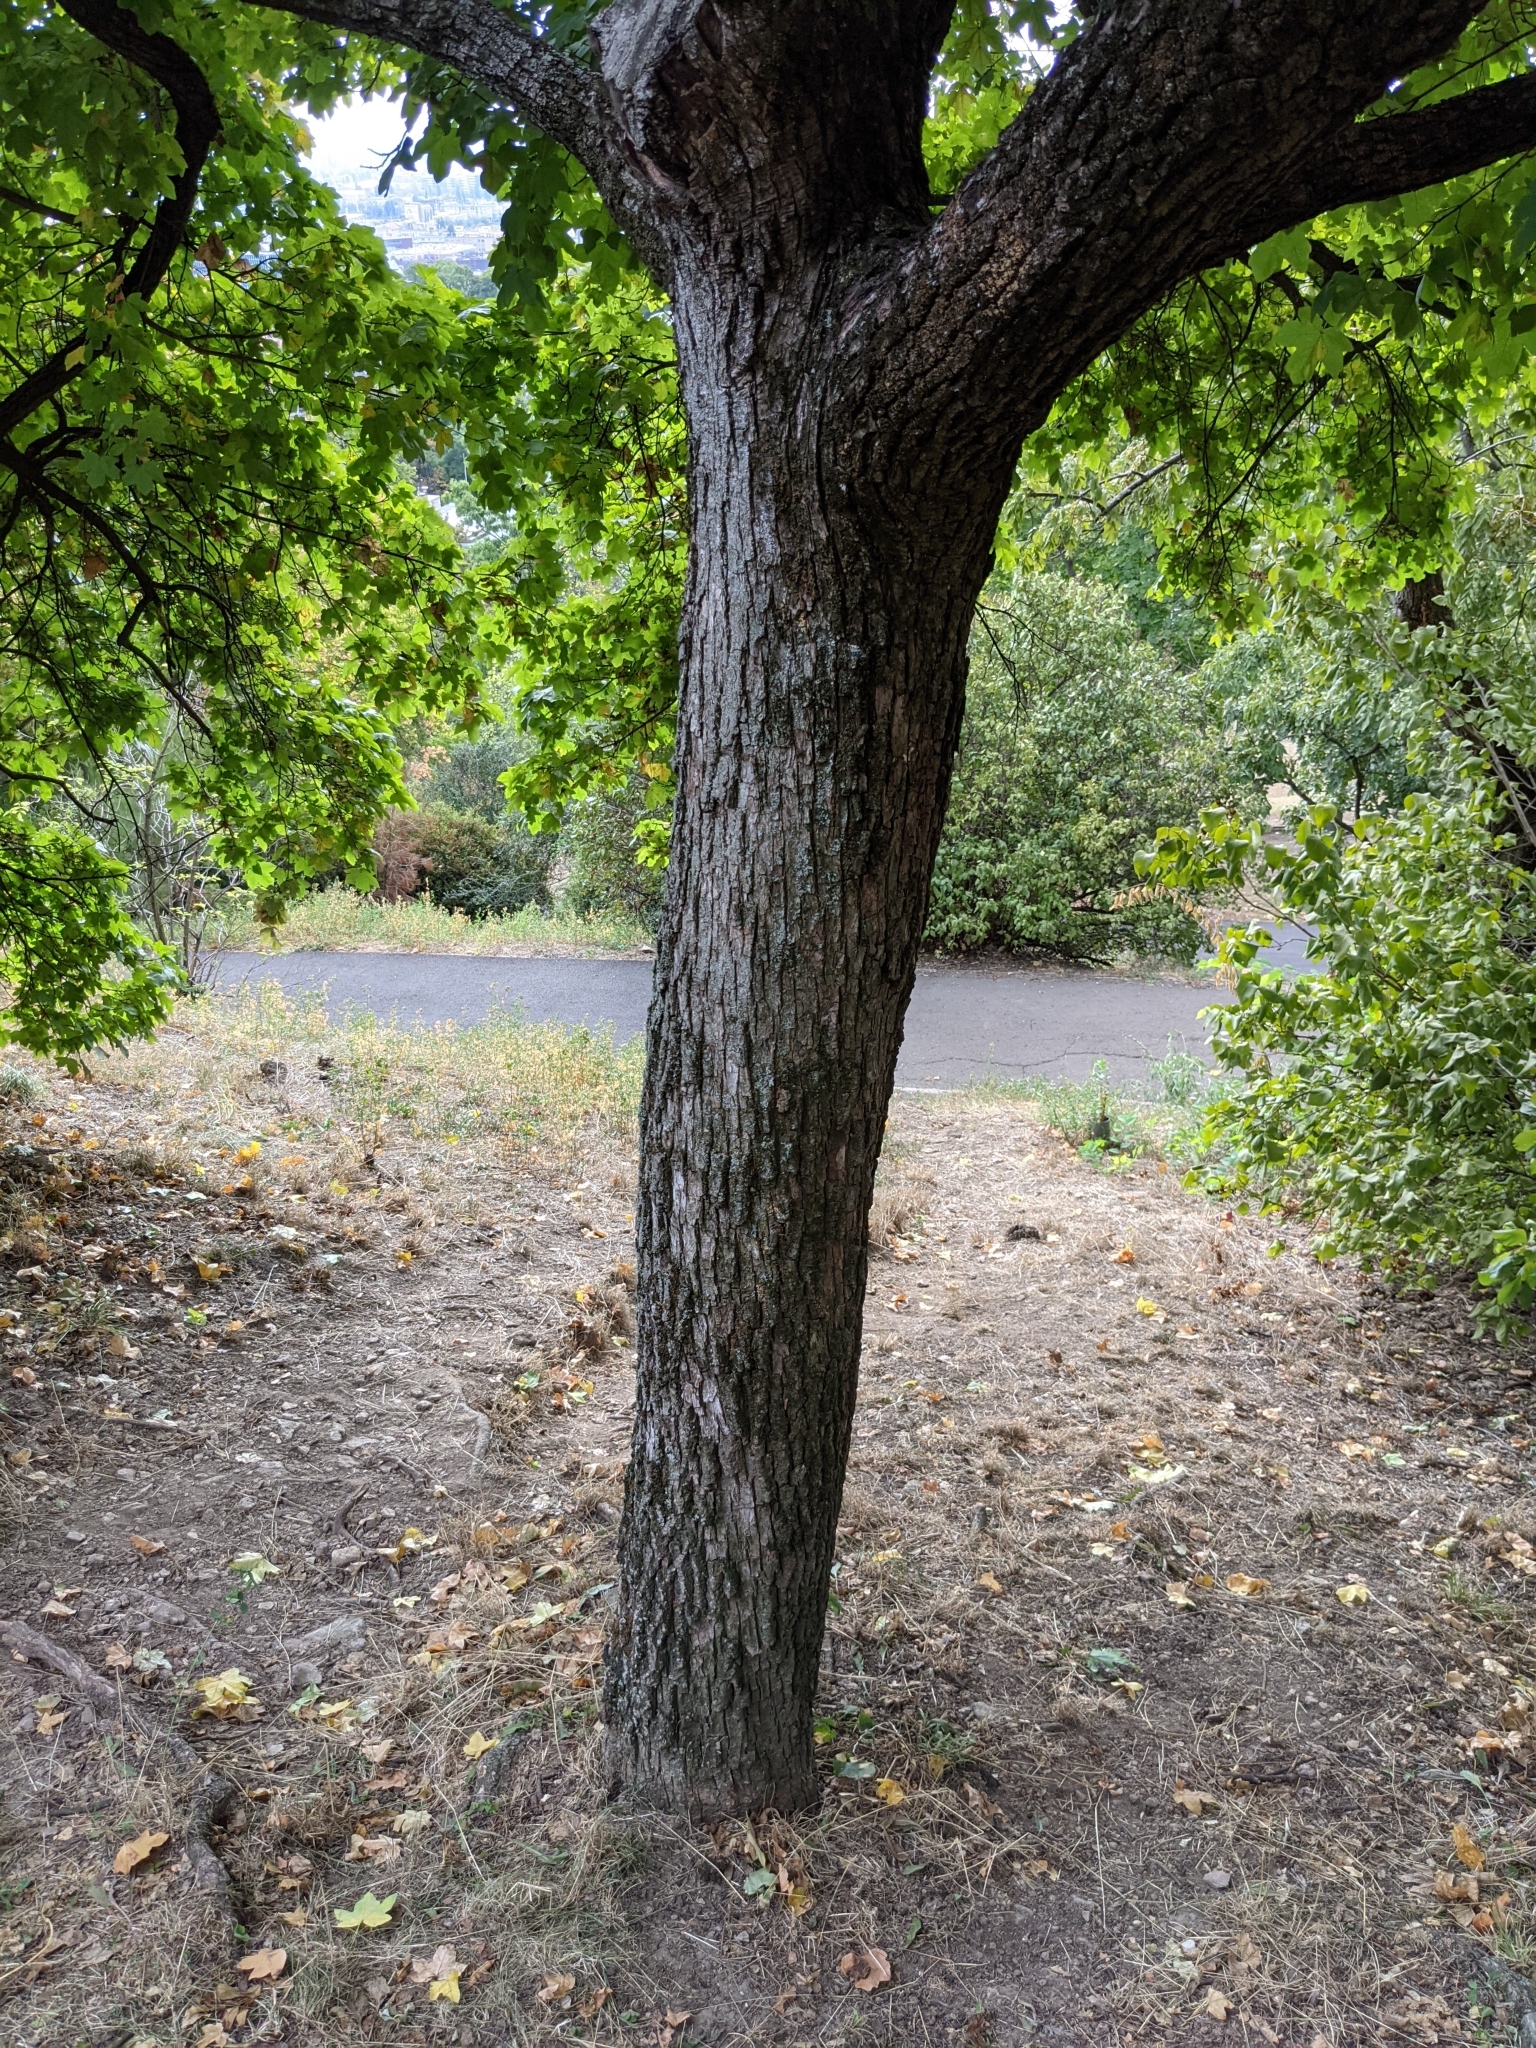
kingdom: Plantae
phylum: Tracheophyta
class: Magnoliopsida
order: Sapindales
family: Sapindaceae
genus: Acer
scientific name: Acer campestre
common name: Field maple
